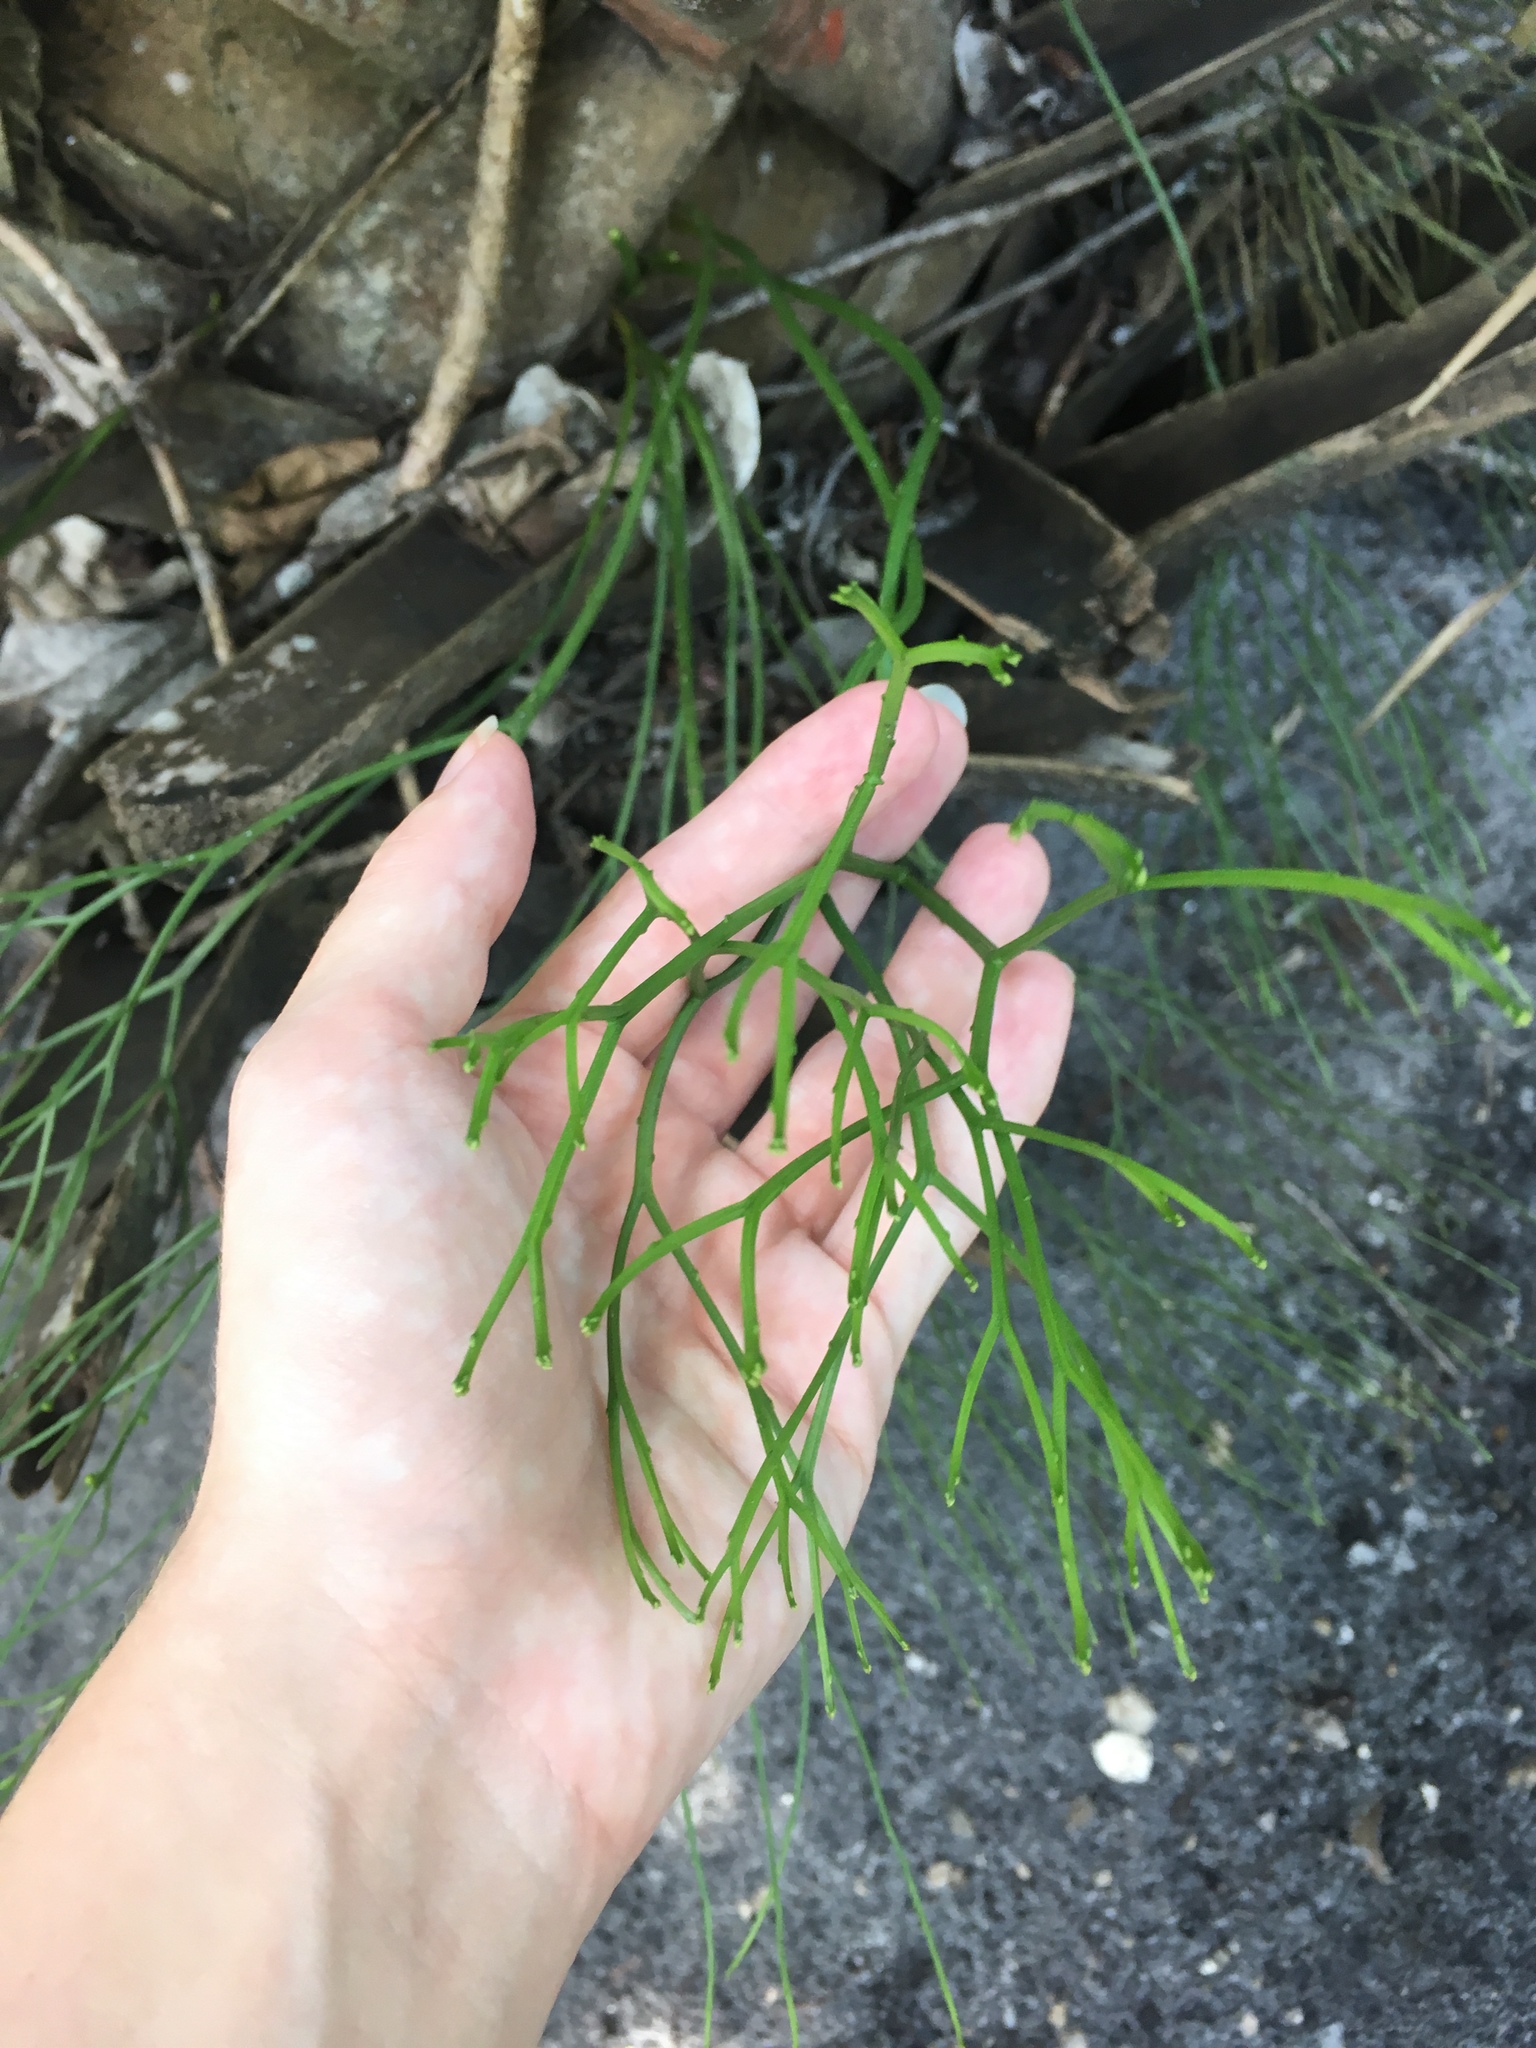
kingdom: Plantae
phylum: Tracheophyta
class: Polypodiopsida
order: Psilotales
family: Psilotaceae
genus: Psilotum
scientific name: Psilotum nudum
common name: Skeleton fork fern
